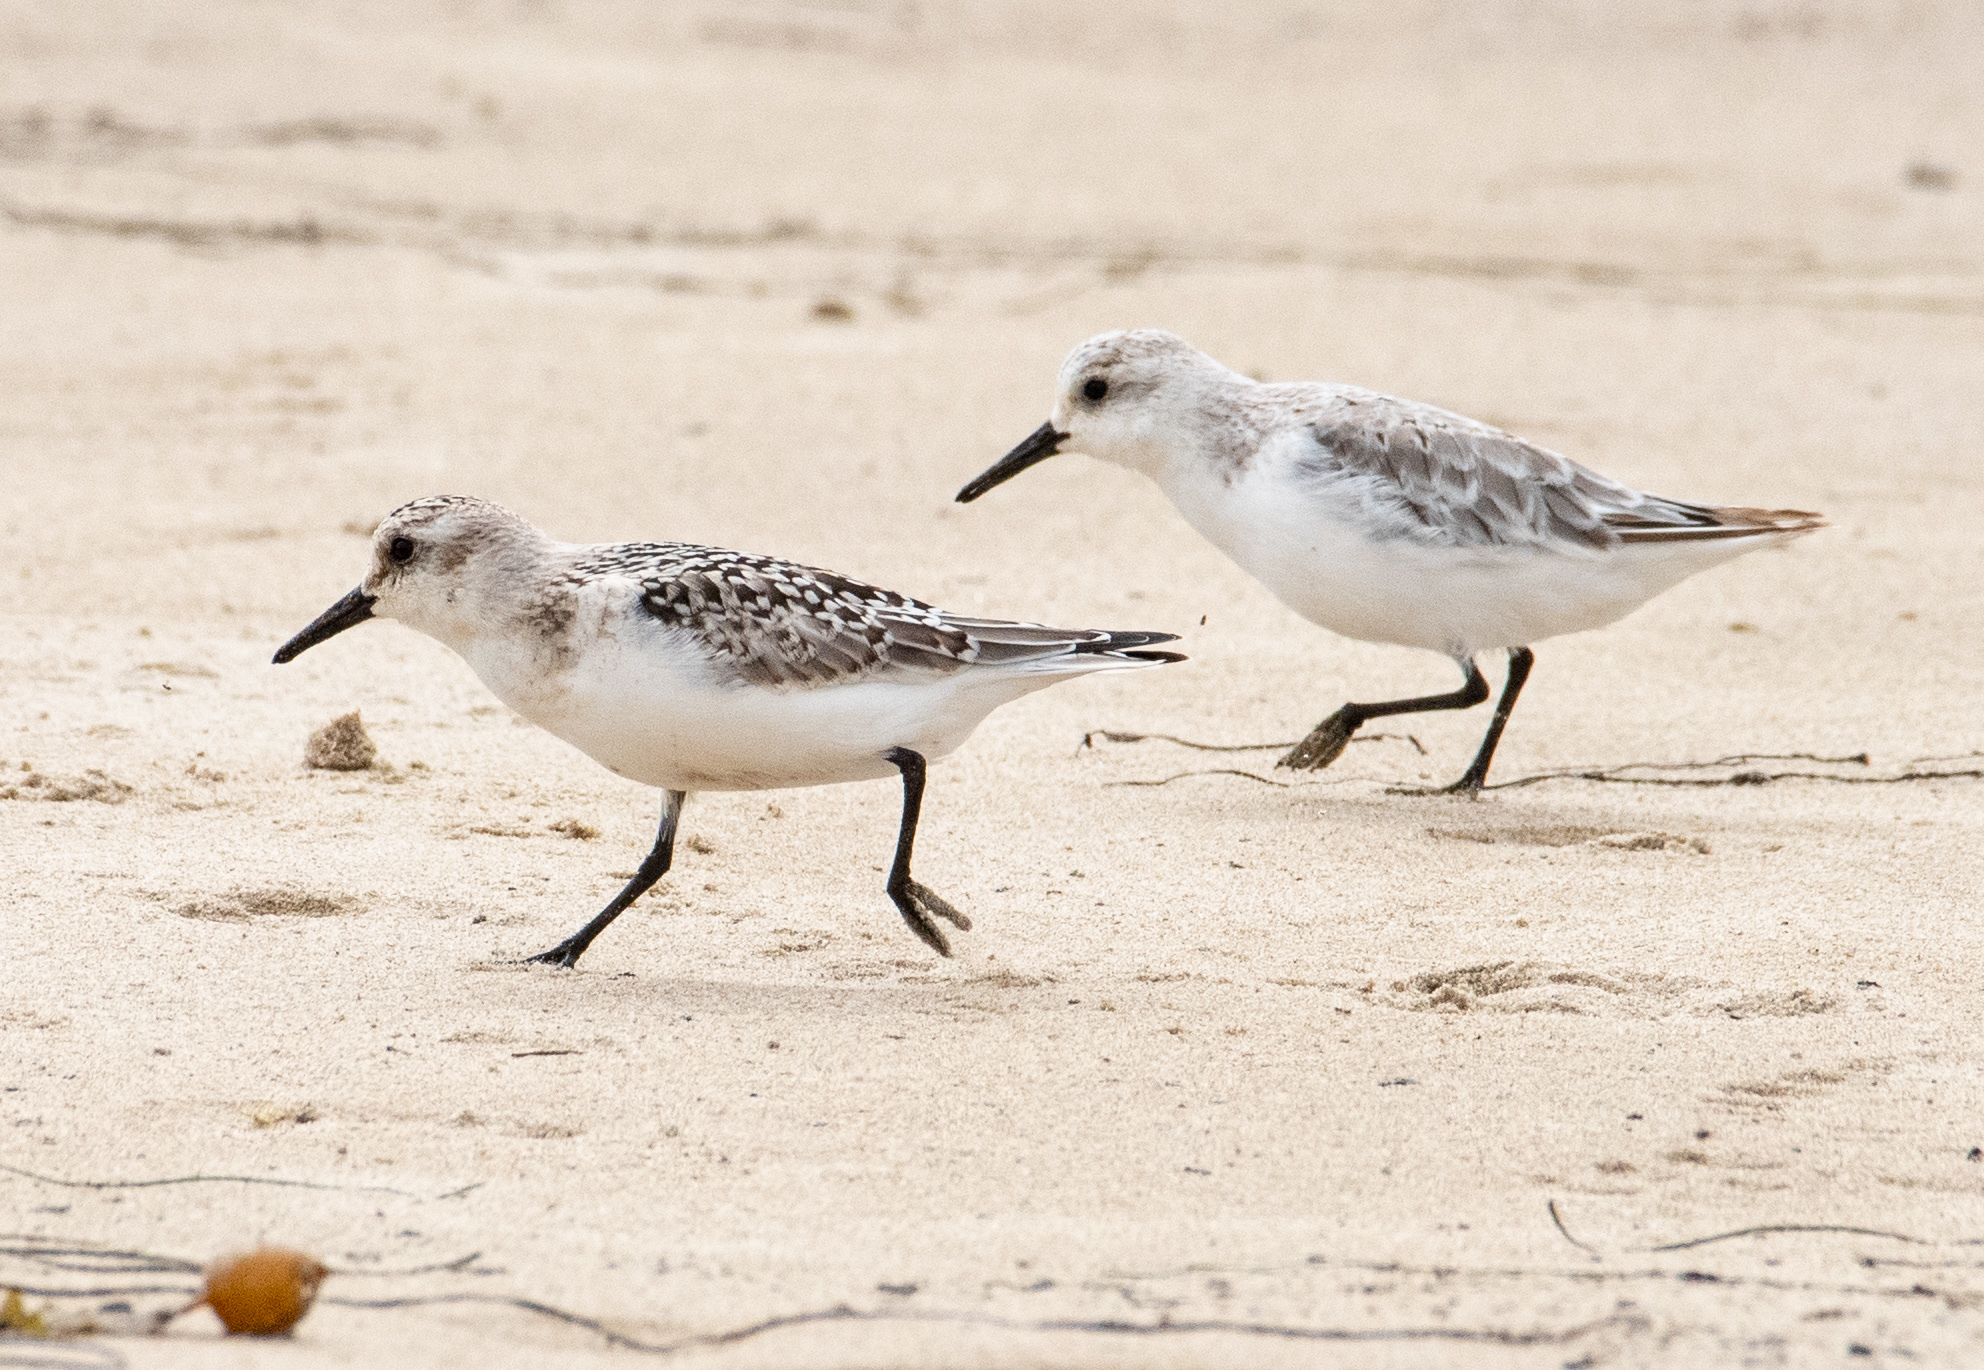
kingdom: Animalia
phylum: Chordata
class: Aves
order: Charadriiformes
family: Scolopacidae
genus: Calidris
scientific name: Calidris alba
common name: Sanderling
